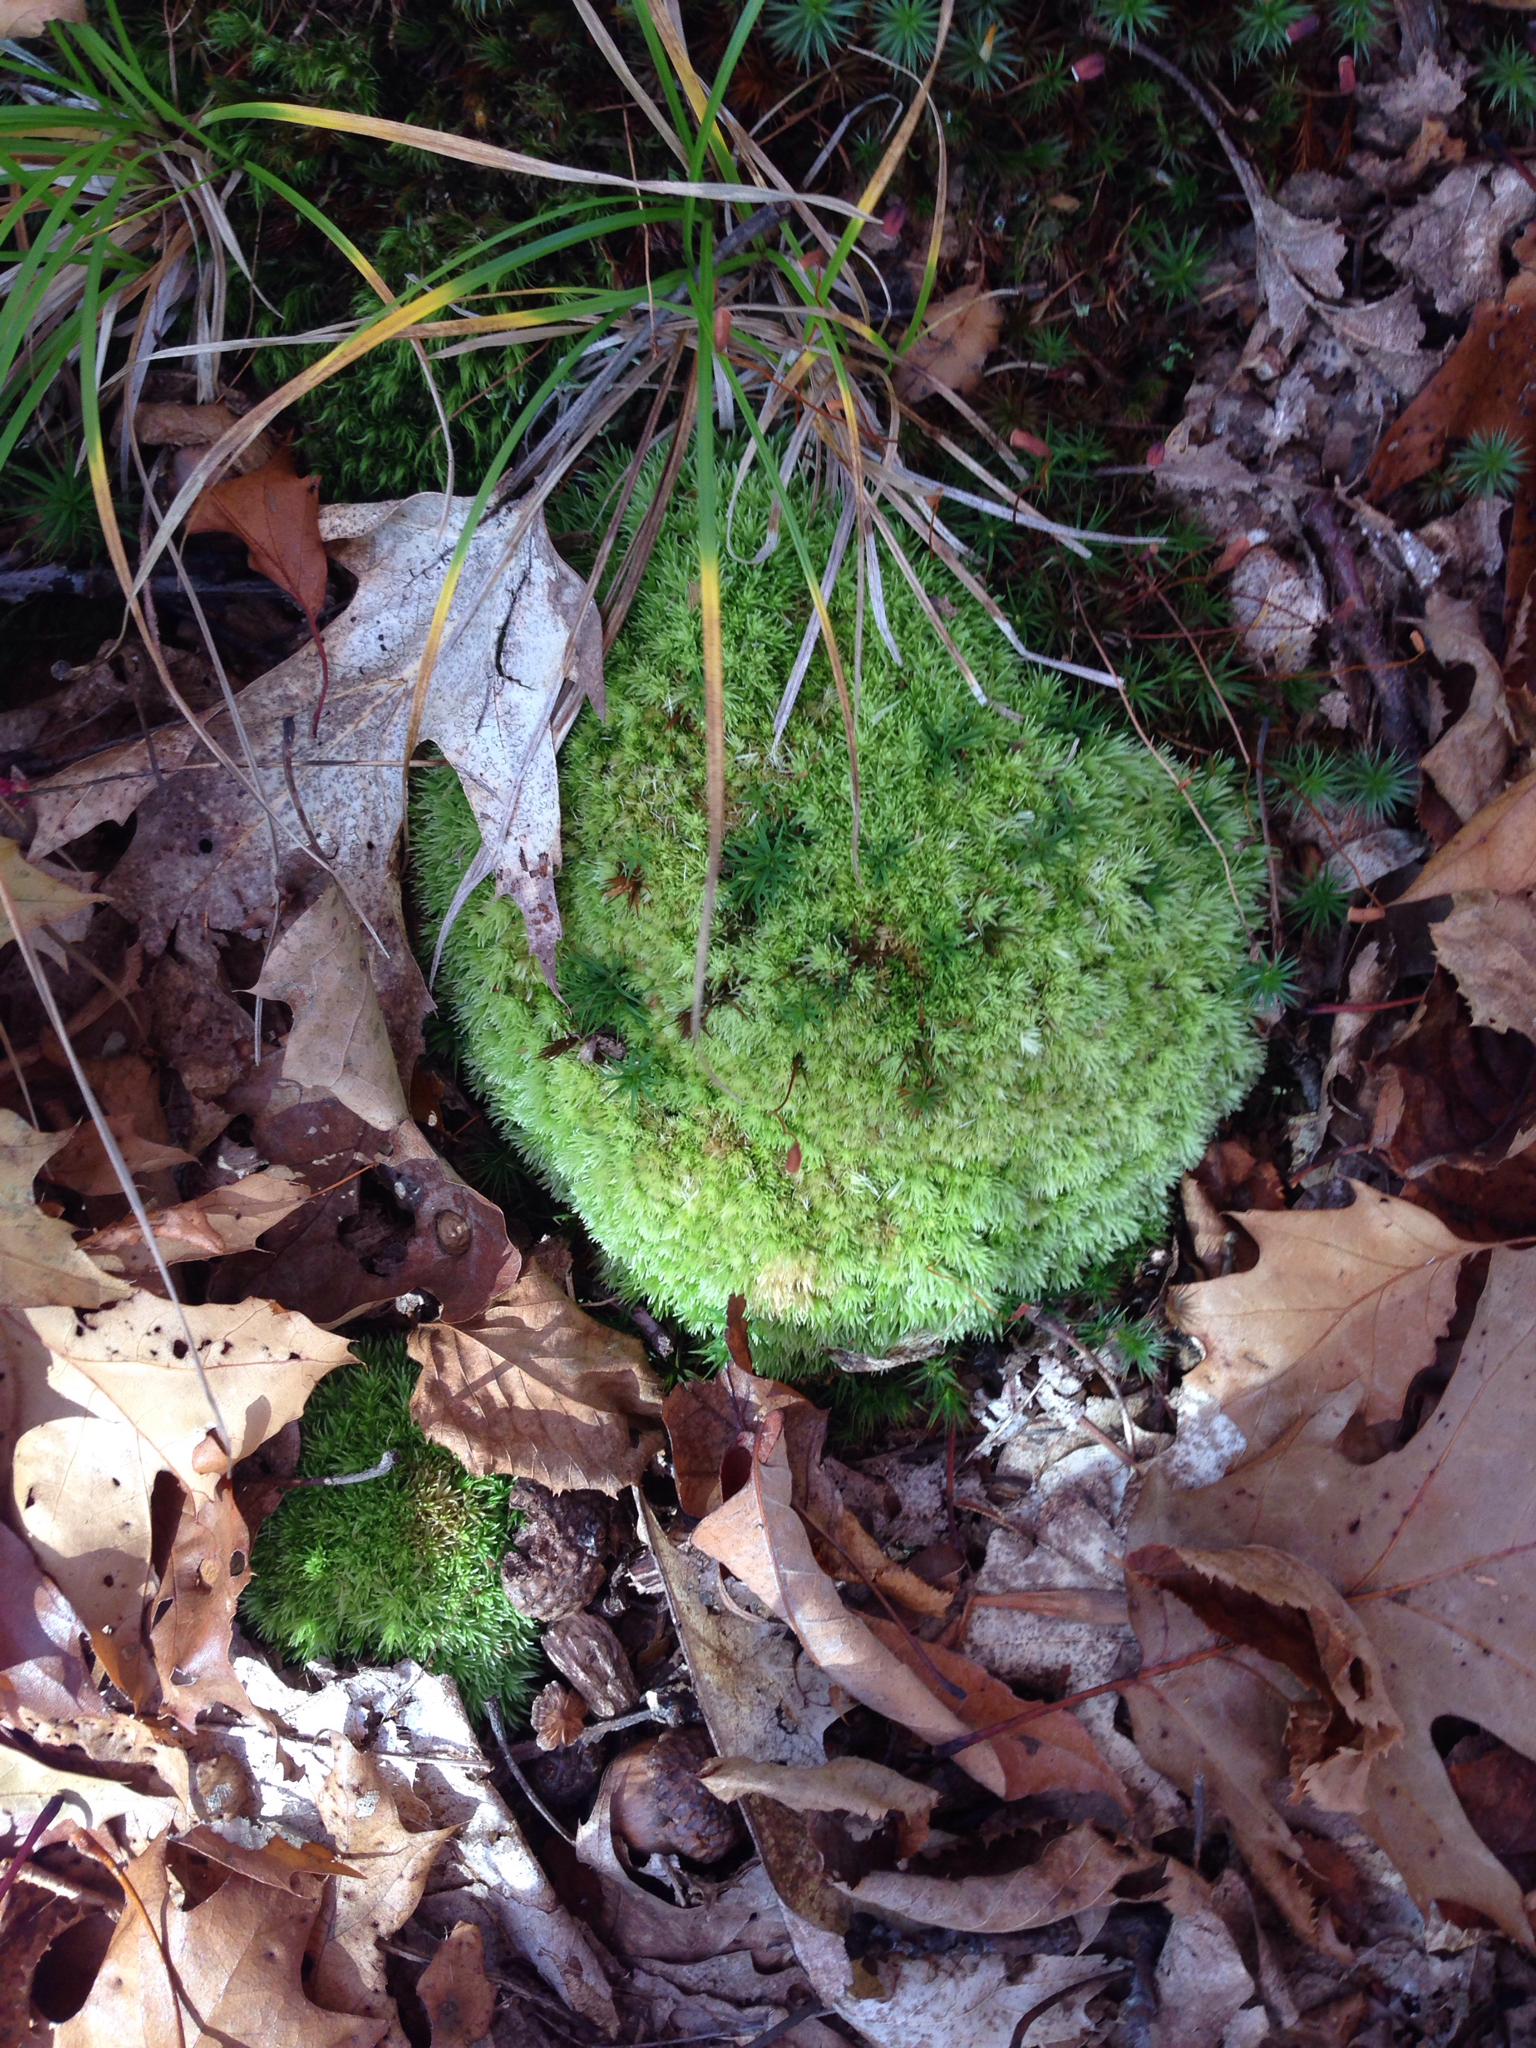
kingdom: Plantae
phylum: Bryophyta
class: Bryopsida
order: Dicranales
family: Leucobryaceae
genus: Leucobryum
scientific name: Leucobryum glaucum
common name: Large white-moss
